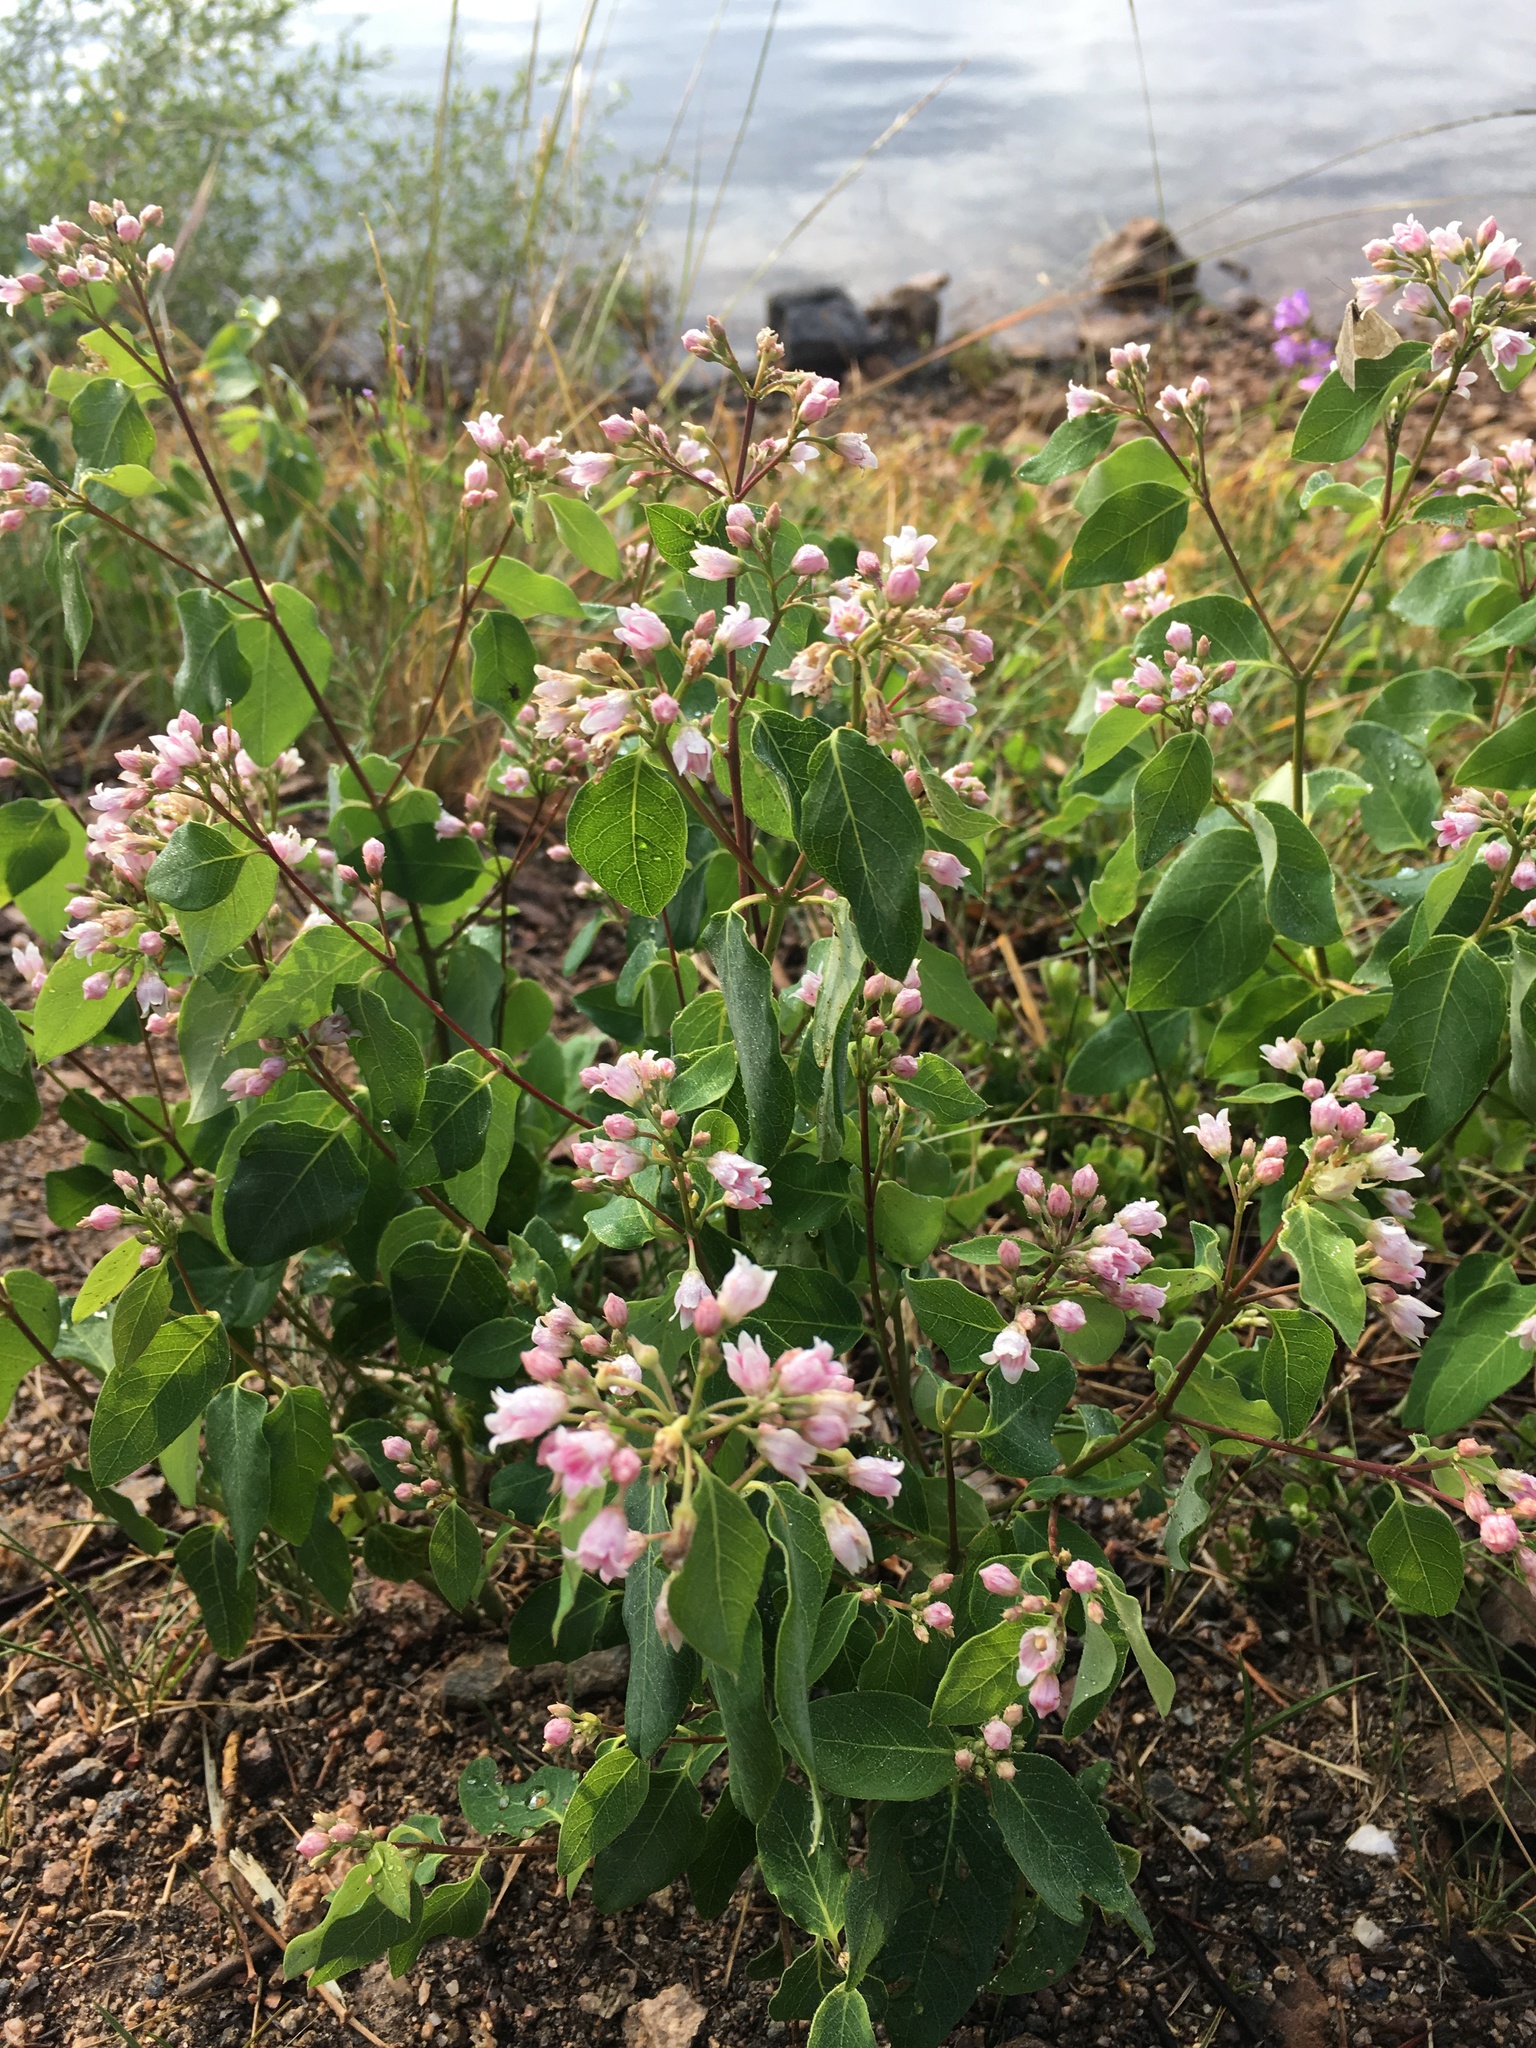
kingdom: Plantae
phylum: Tracheophyta
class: Magnoliopsida
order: Gentianales
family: Apocynaceae
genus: Apocynum
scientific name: Apocynum androsaemifolium
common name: Spreading dogbane
